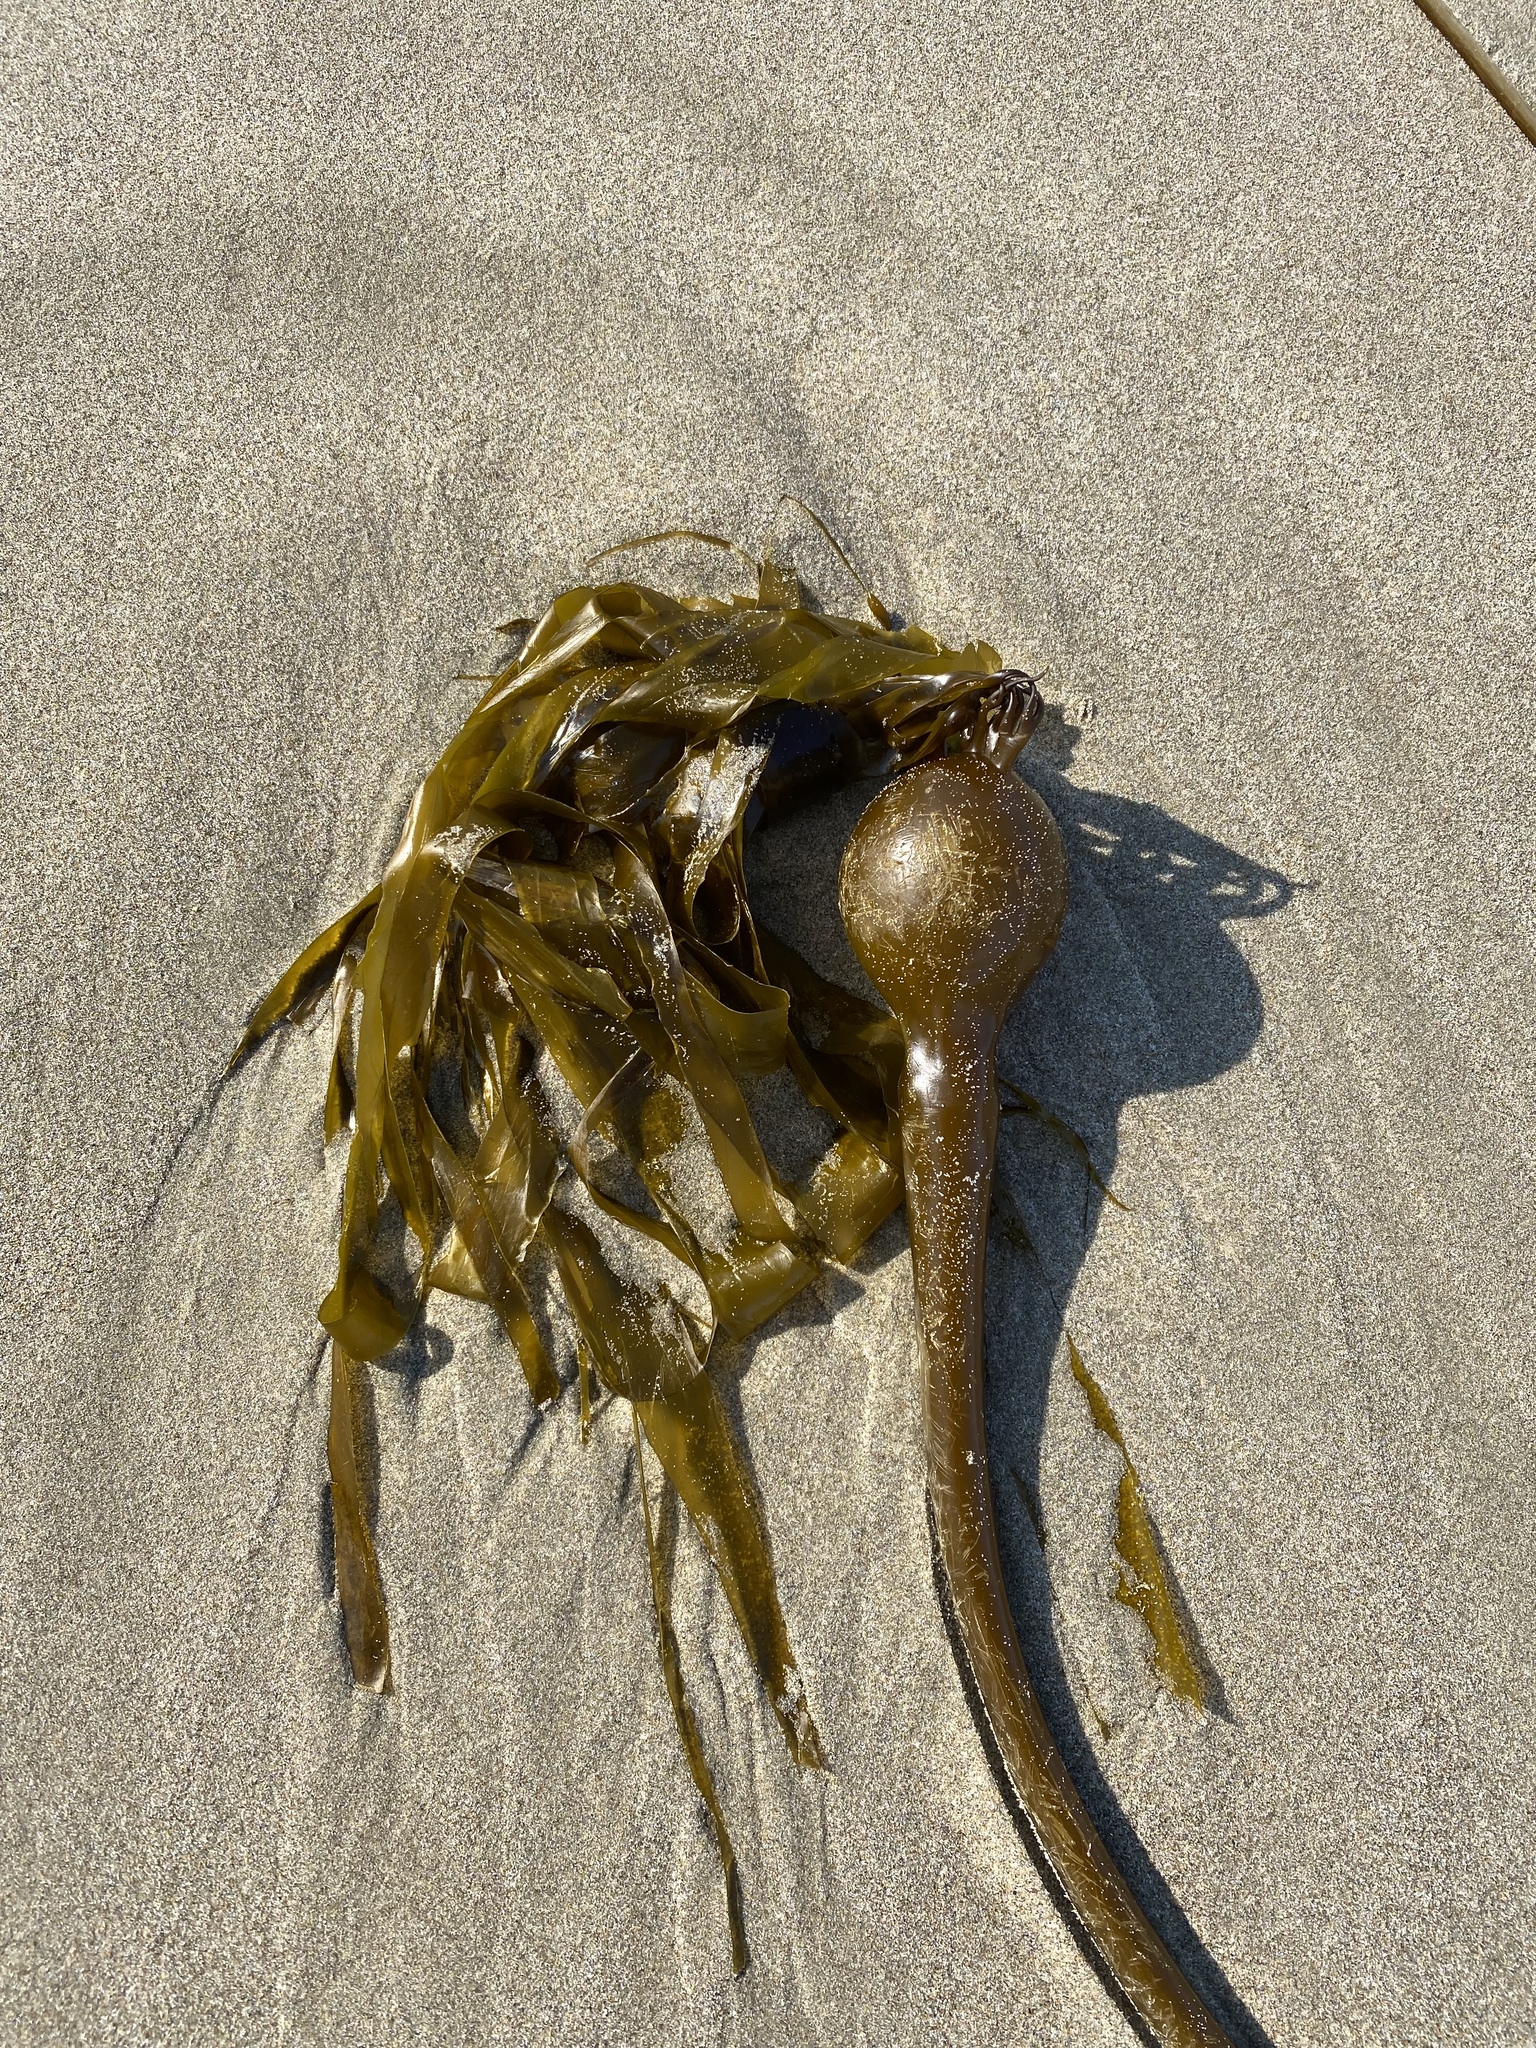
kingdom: Chromista
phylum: Ochrophyta
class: Phaeophyceae
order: Laminariales
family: Laminariaceae
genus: Nereocystis
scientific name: Nereocystis luetkeana
